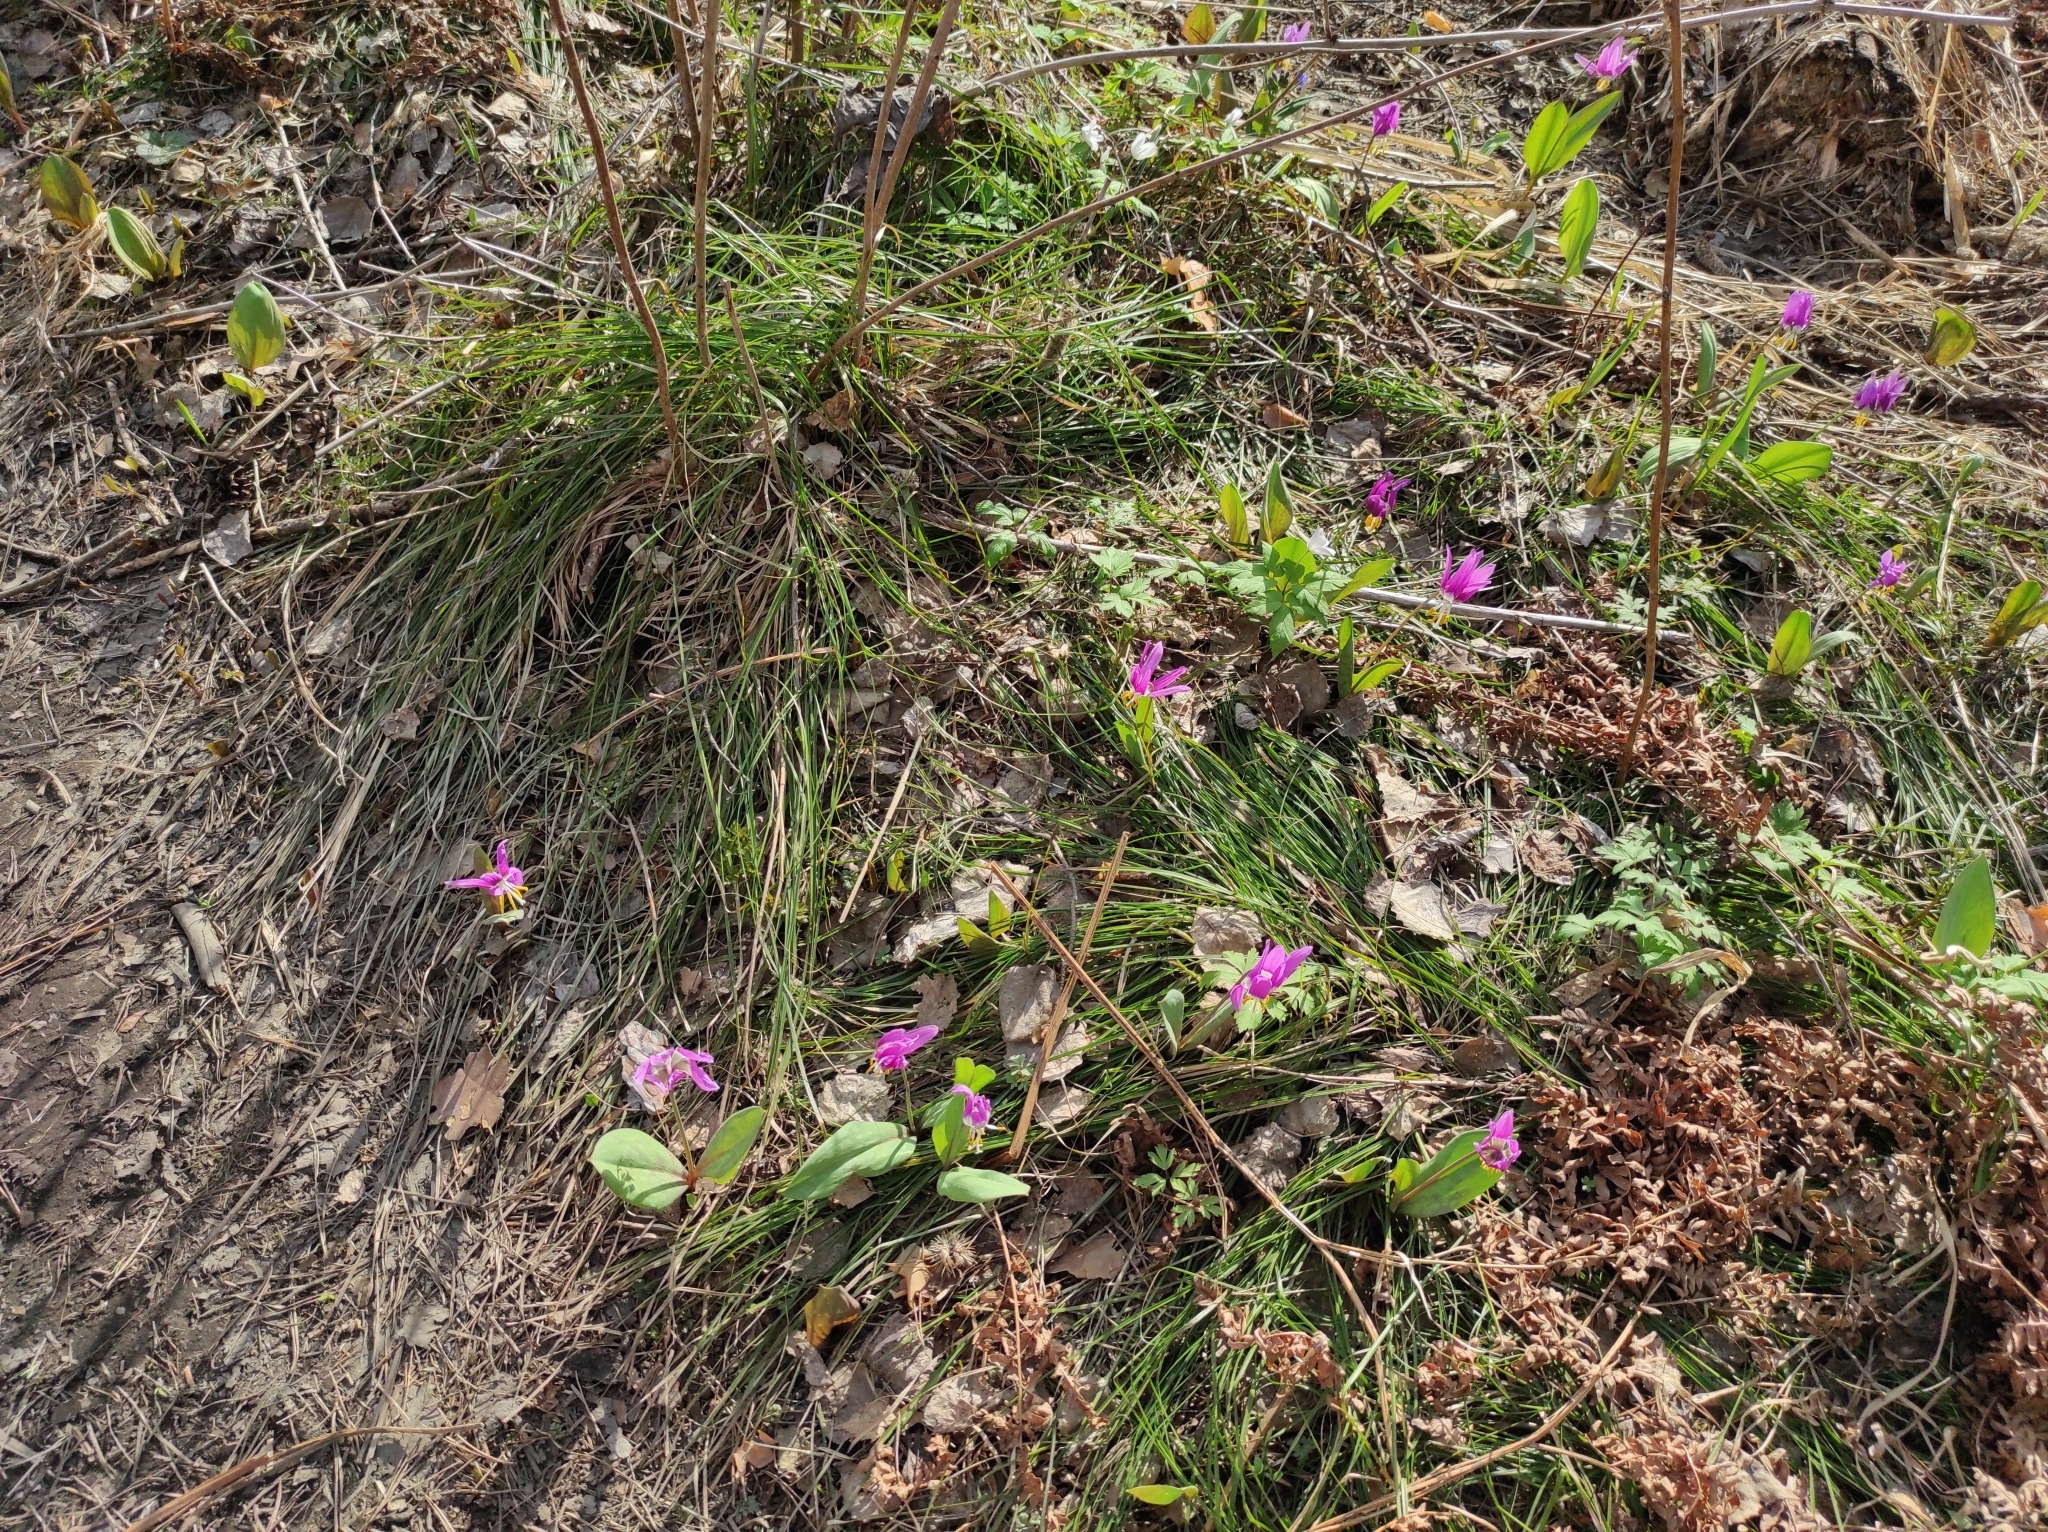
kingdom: Plantae
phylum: Tracheophyta
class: Liliopsida
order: Liliales
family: Liliaceae
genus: Erythronium
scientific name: Erythronium sibiricum
